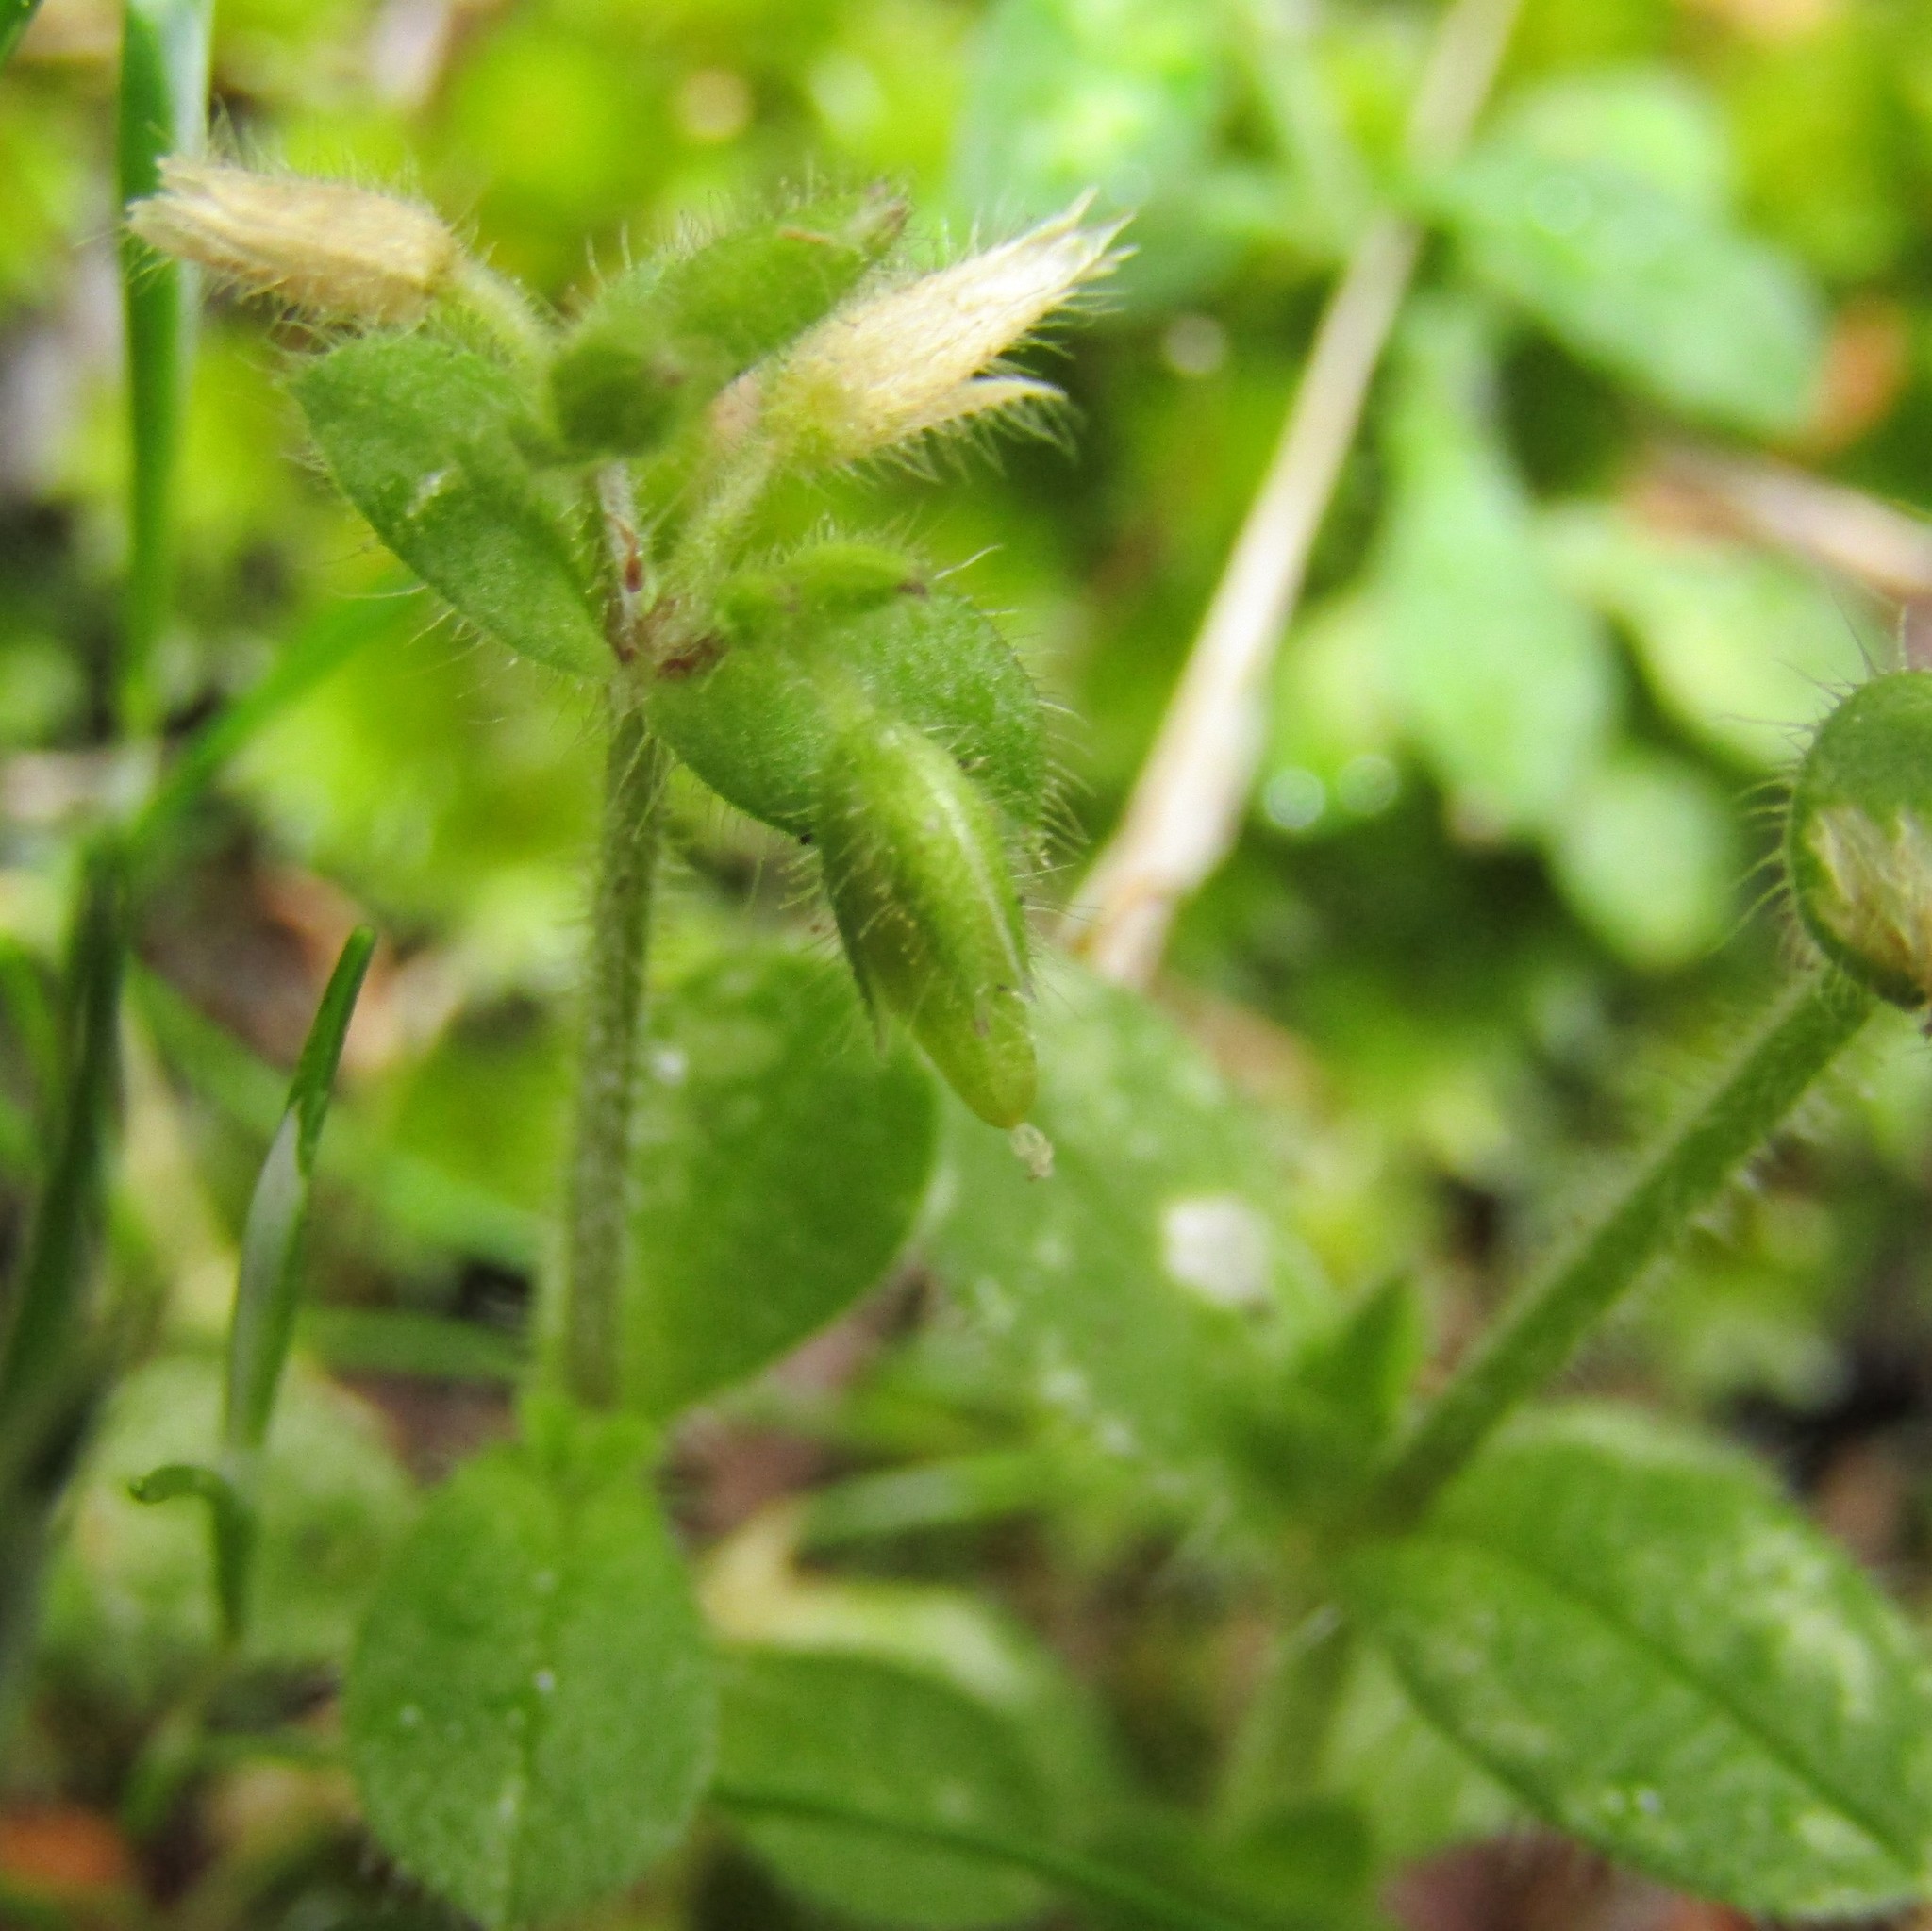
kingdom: Plantae
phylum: Tracheophyta
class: Magnoliopsida
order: Caryophyllales
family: Caryophyllaceae
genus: Cerastium
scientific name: Cerastium glomeratum
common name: Sticky chickweed
